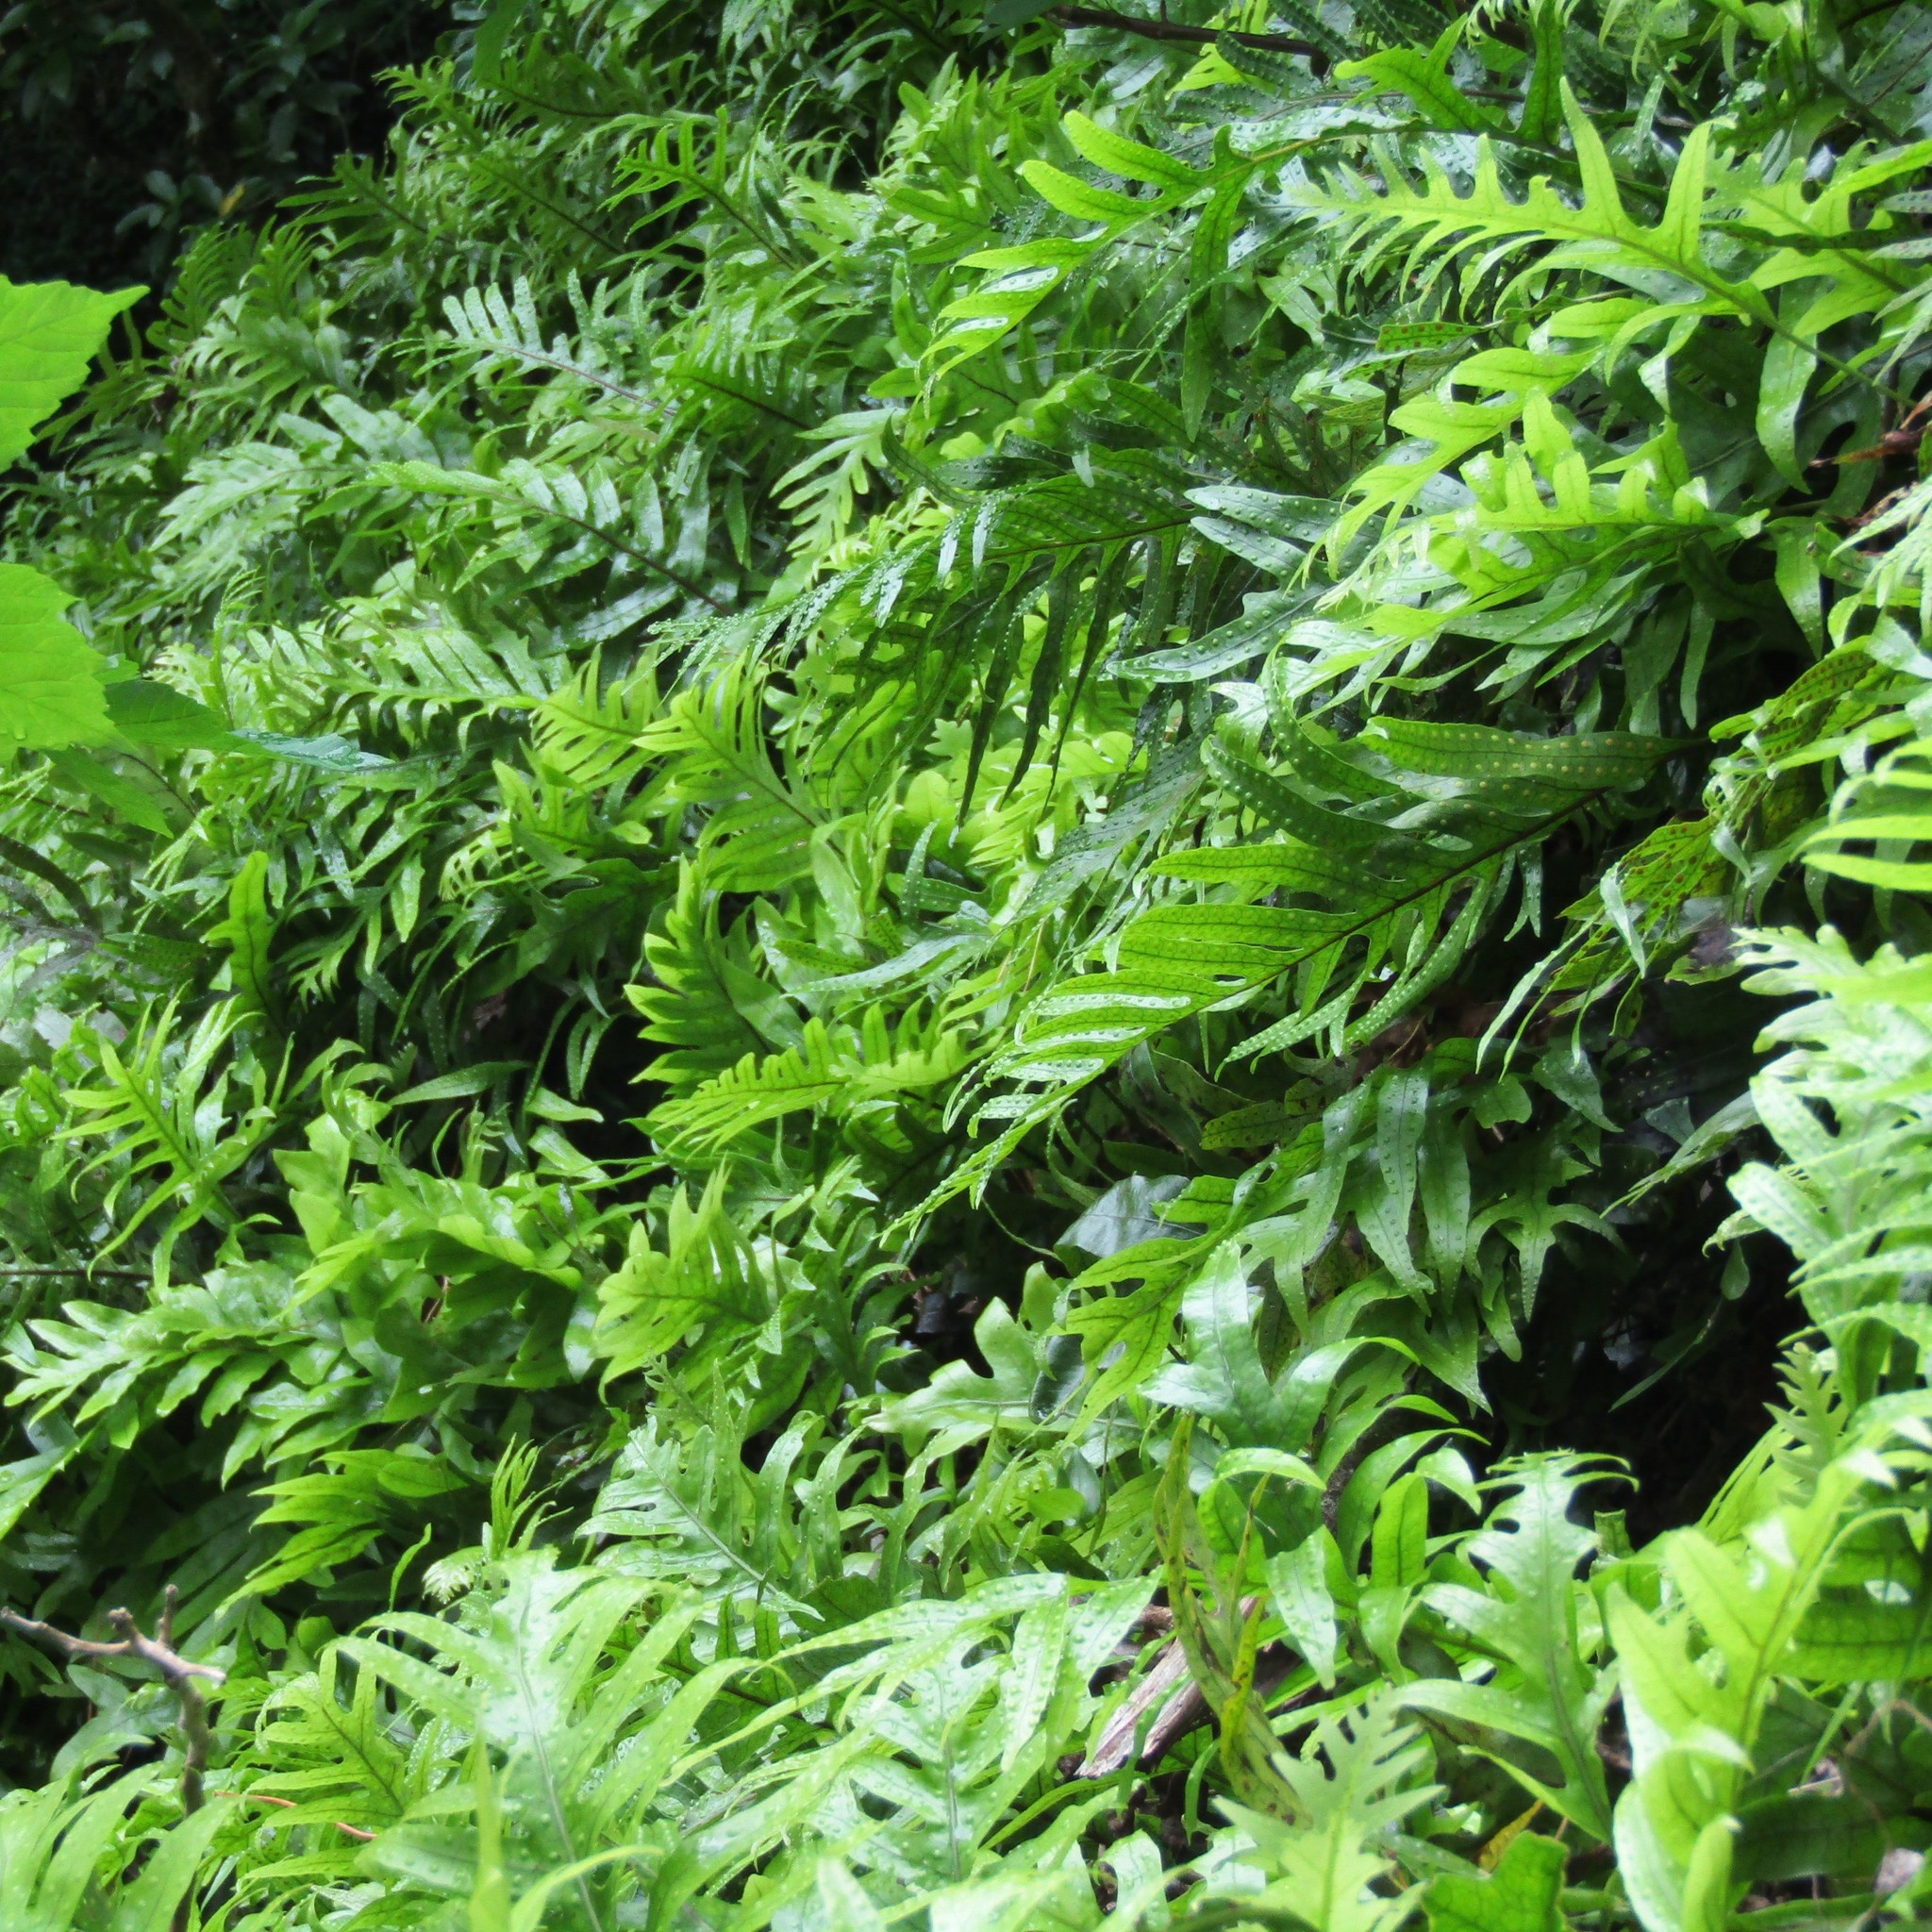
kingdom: Plantae
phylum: Tracheophyta
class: Polypodiopsida
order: Polypodiales
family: Polypodiaceae
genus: Lecanopteris
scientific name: Lecanopteris pustulata
